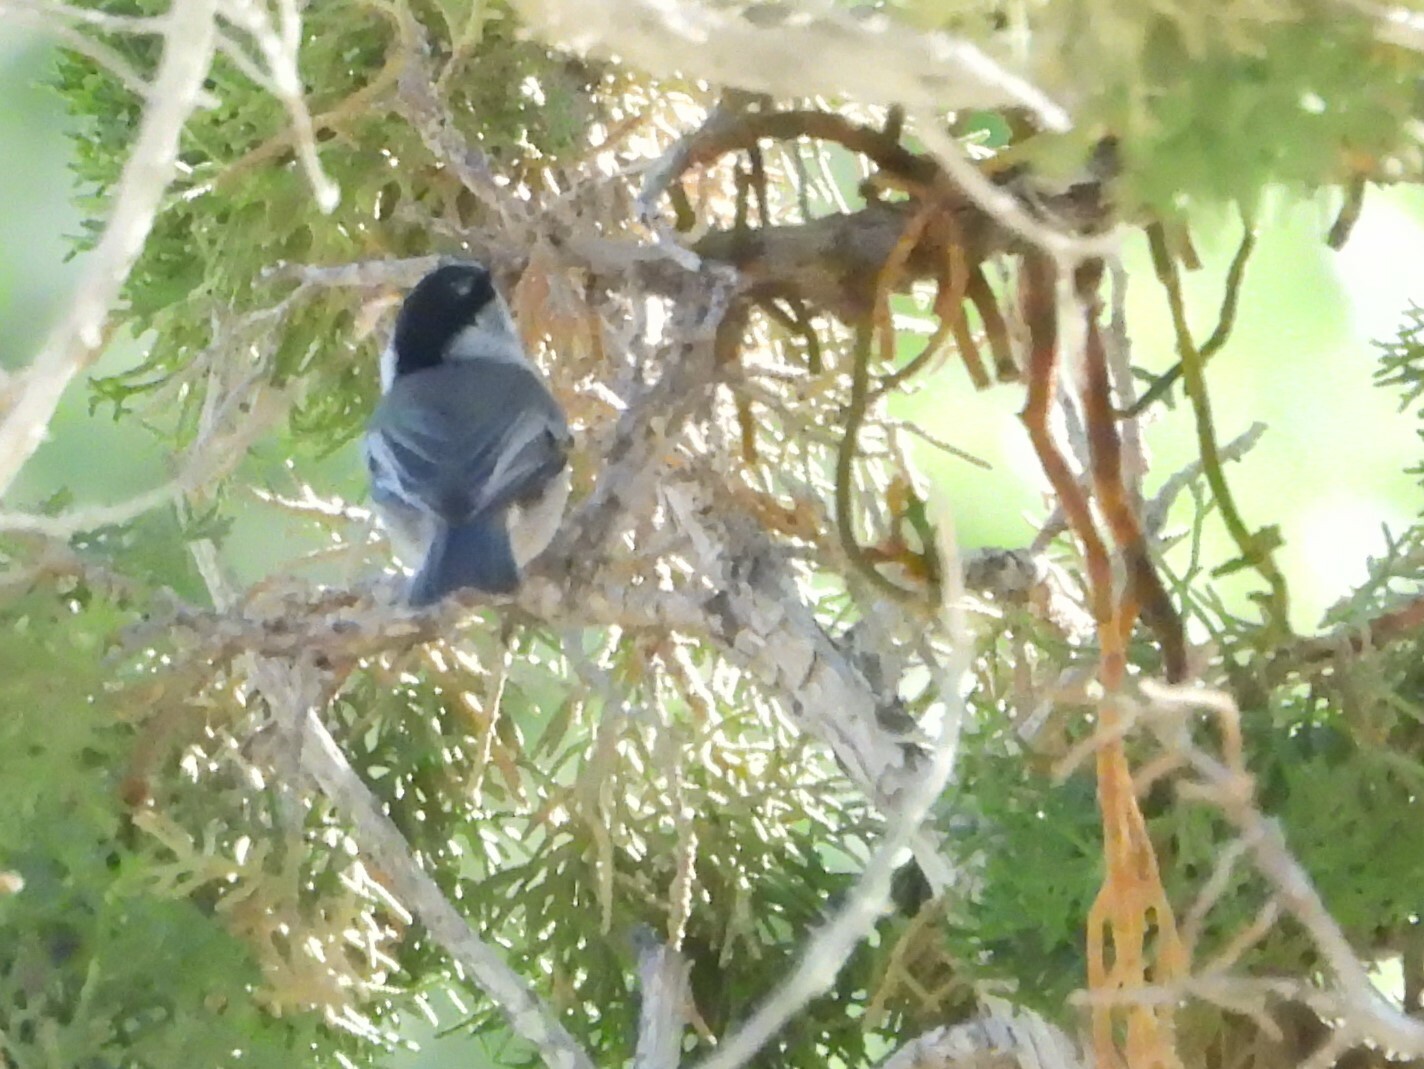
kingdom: Animalia
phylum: Chordata
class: Aves
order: Passeriformes
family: Paridae
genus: Poecile
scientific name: Poecile atricapillus
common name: Black-capped chickadee
